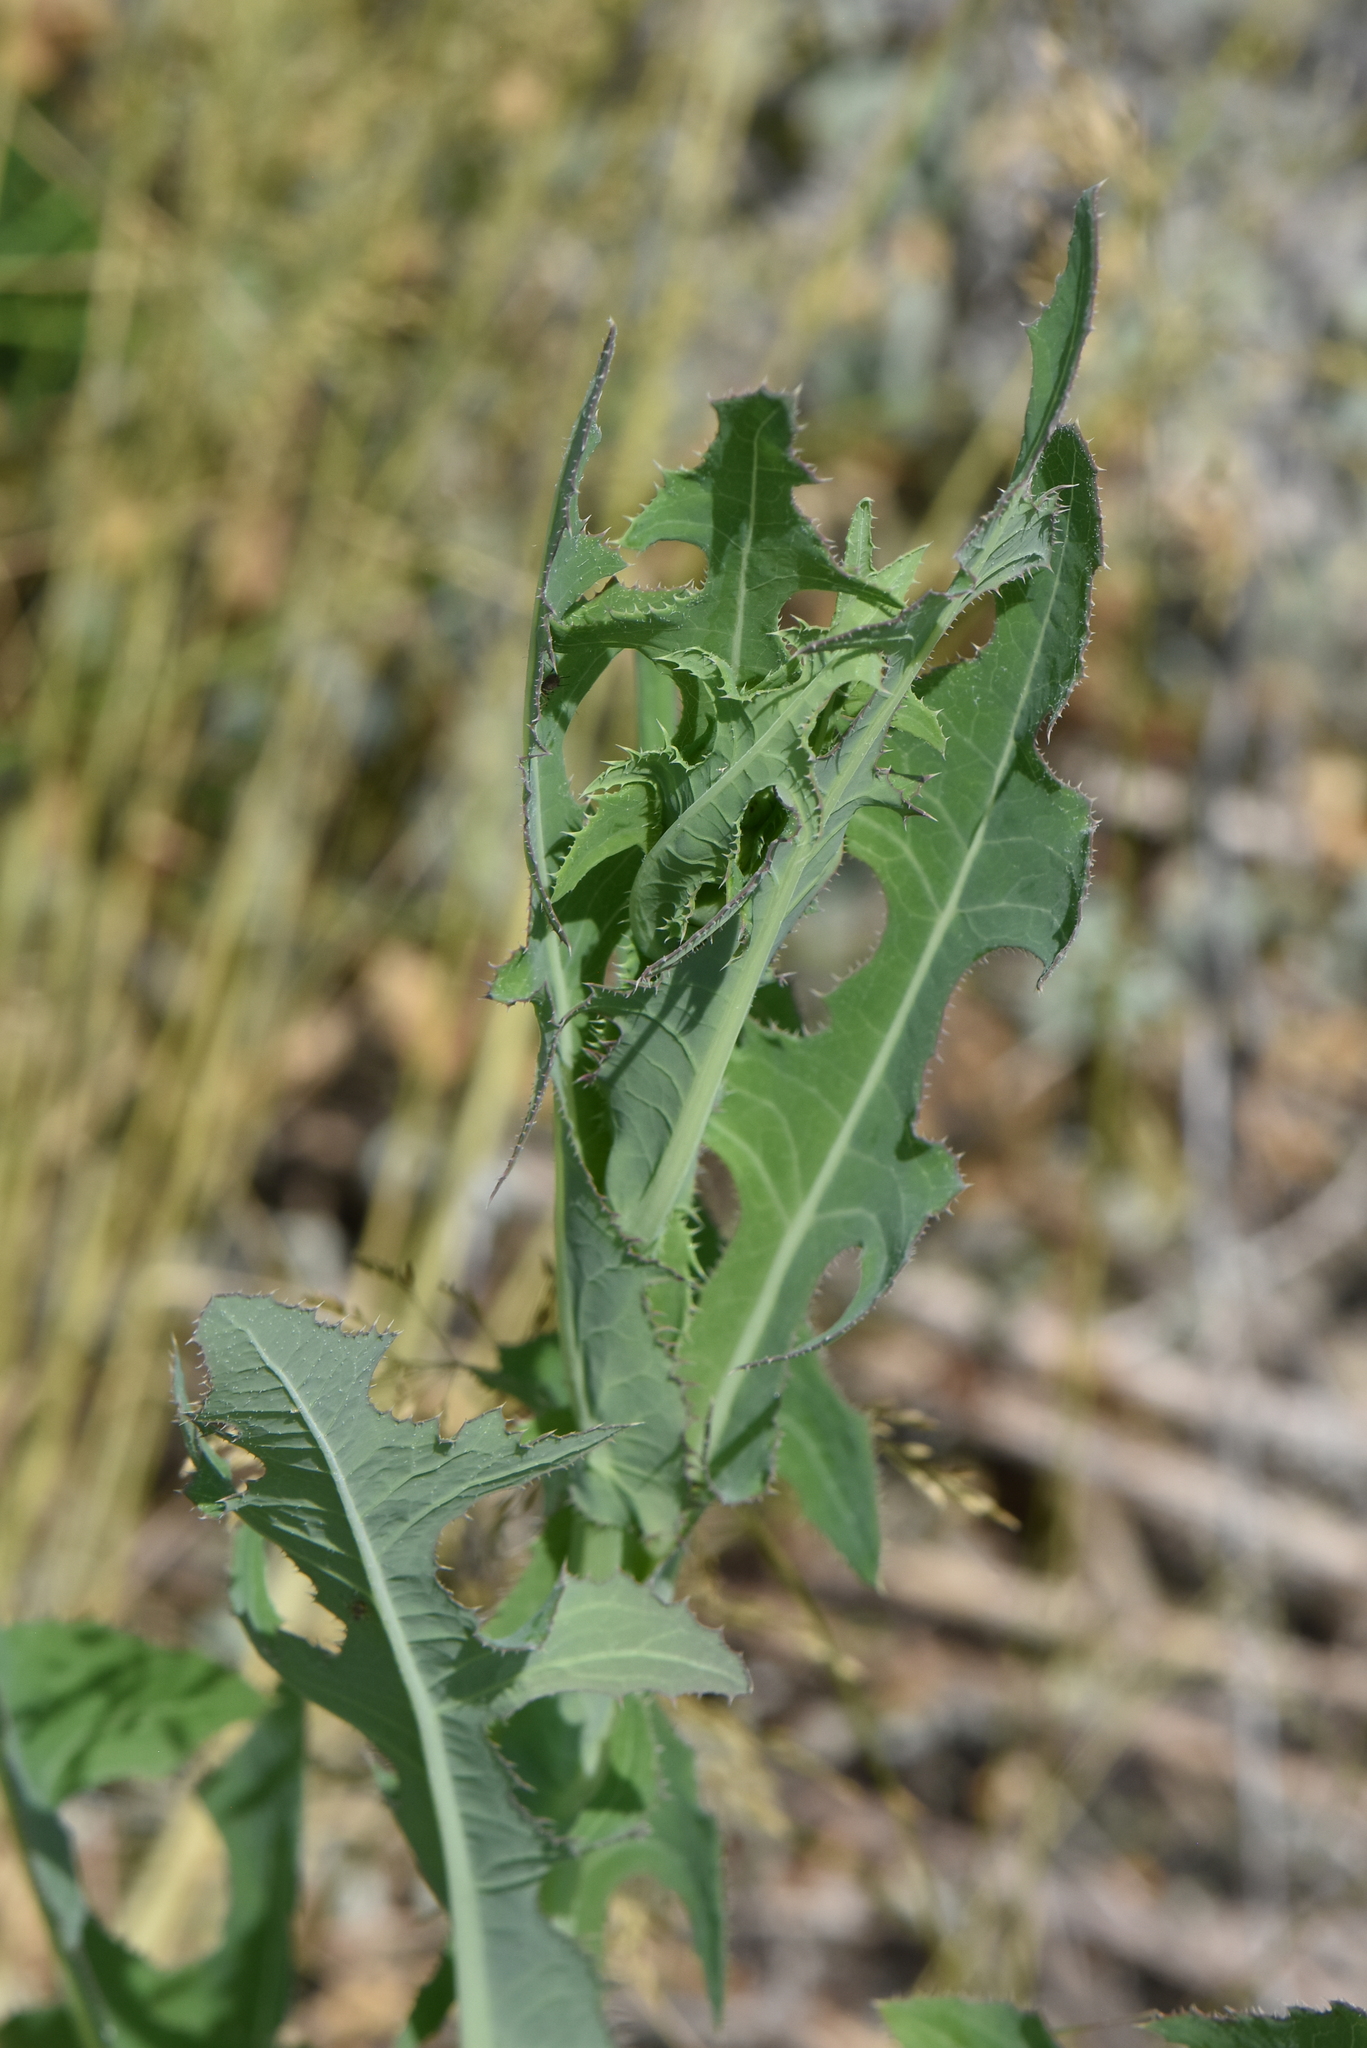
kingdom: Plantae
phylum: Tracheophyta
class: Magnoliopsida
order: Asterales
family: Asteraceae
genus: Lactuca
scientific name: Lactuca serriola
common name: Prickly lettuce
